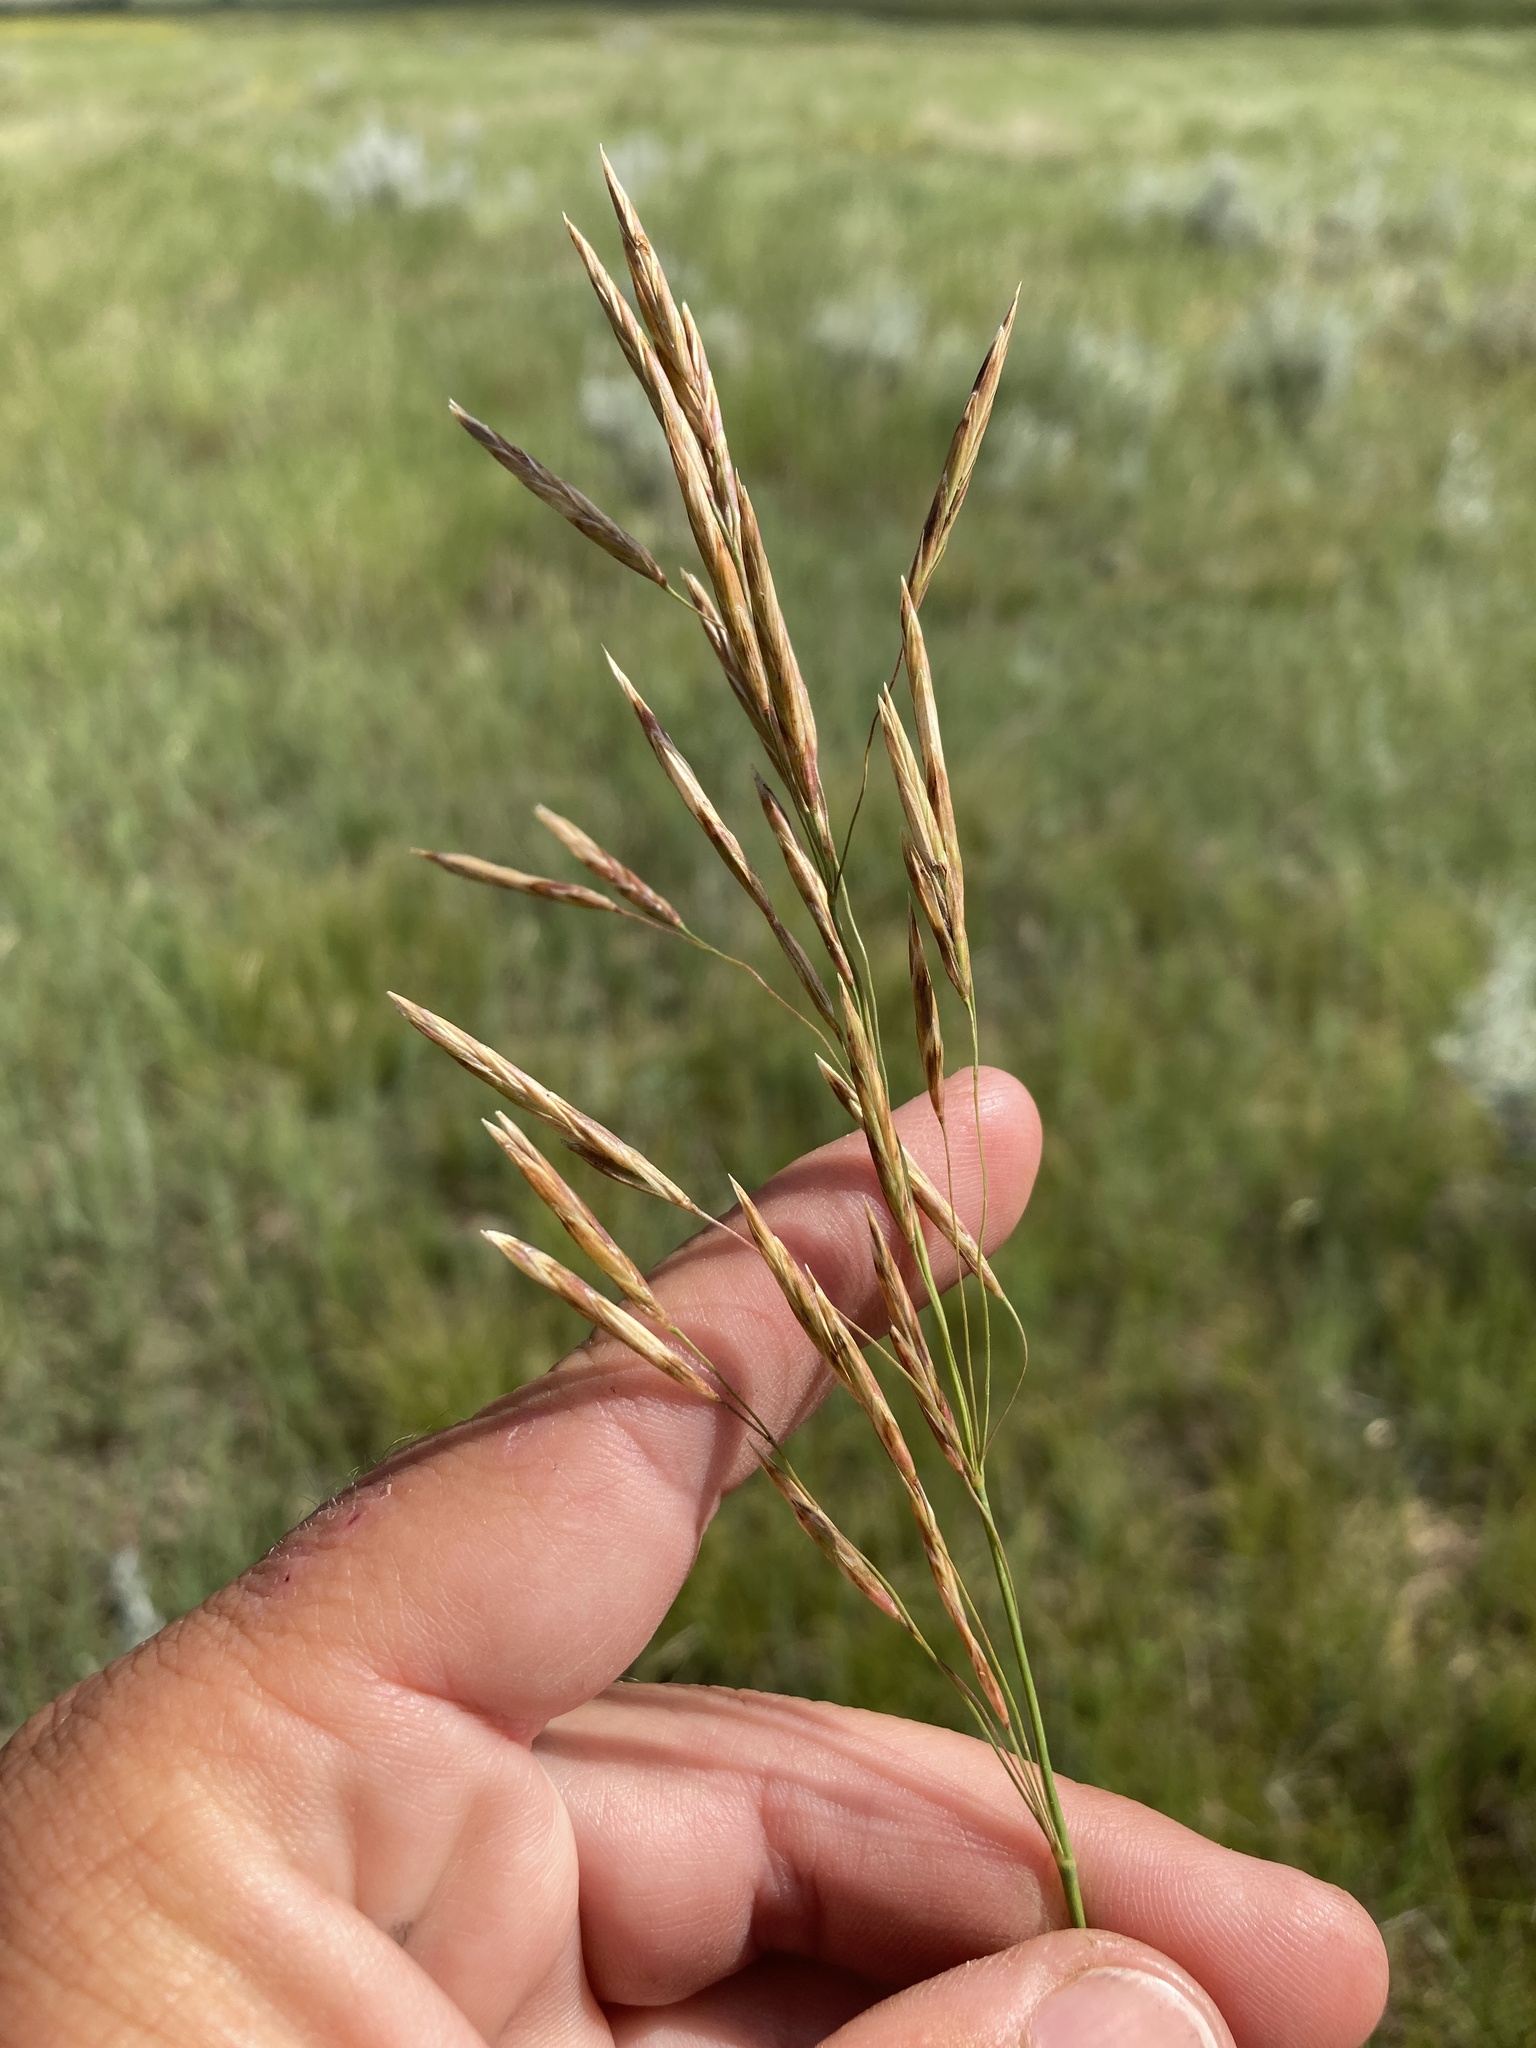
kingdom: Plantae
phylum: Tracheophyta
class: Liliopsida
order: Poales
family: Poaceae
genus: Bromus
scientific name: Bromus inermis
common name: Smooth brome
